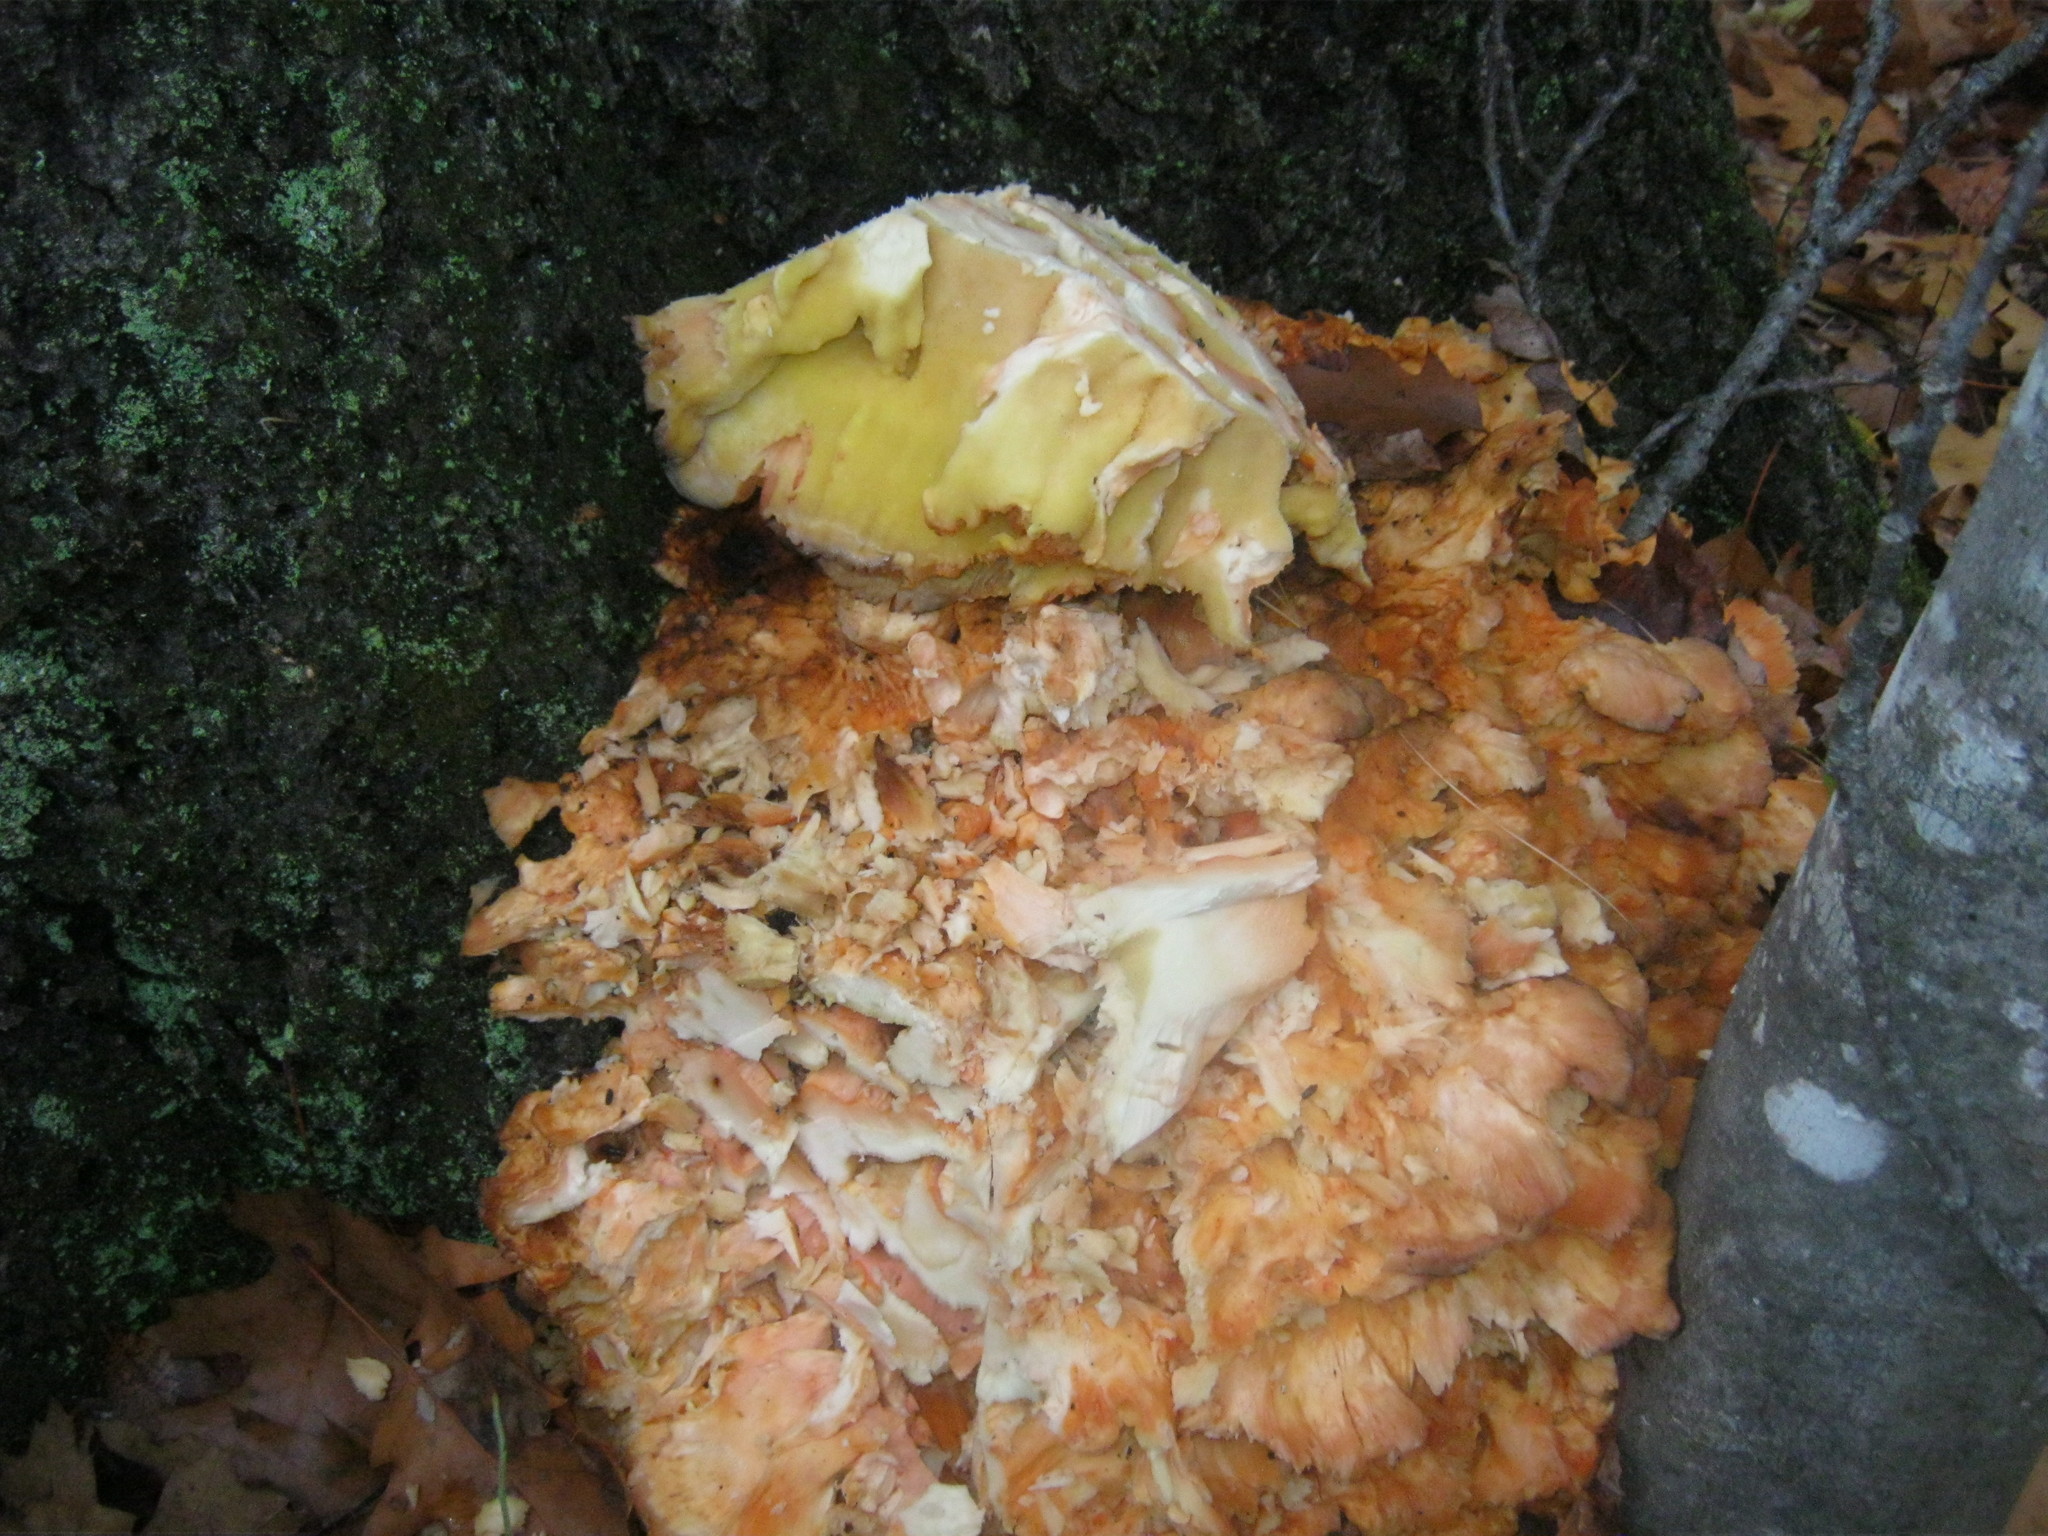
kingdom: Fungi
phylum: Basidiomycota
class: Agaricomycetes
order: Polyporales
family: Laetiporaceae
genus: Laetiporus
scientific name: Laetiporus sulphureus
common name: Chicken of the woods
